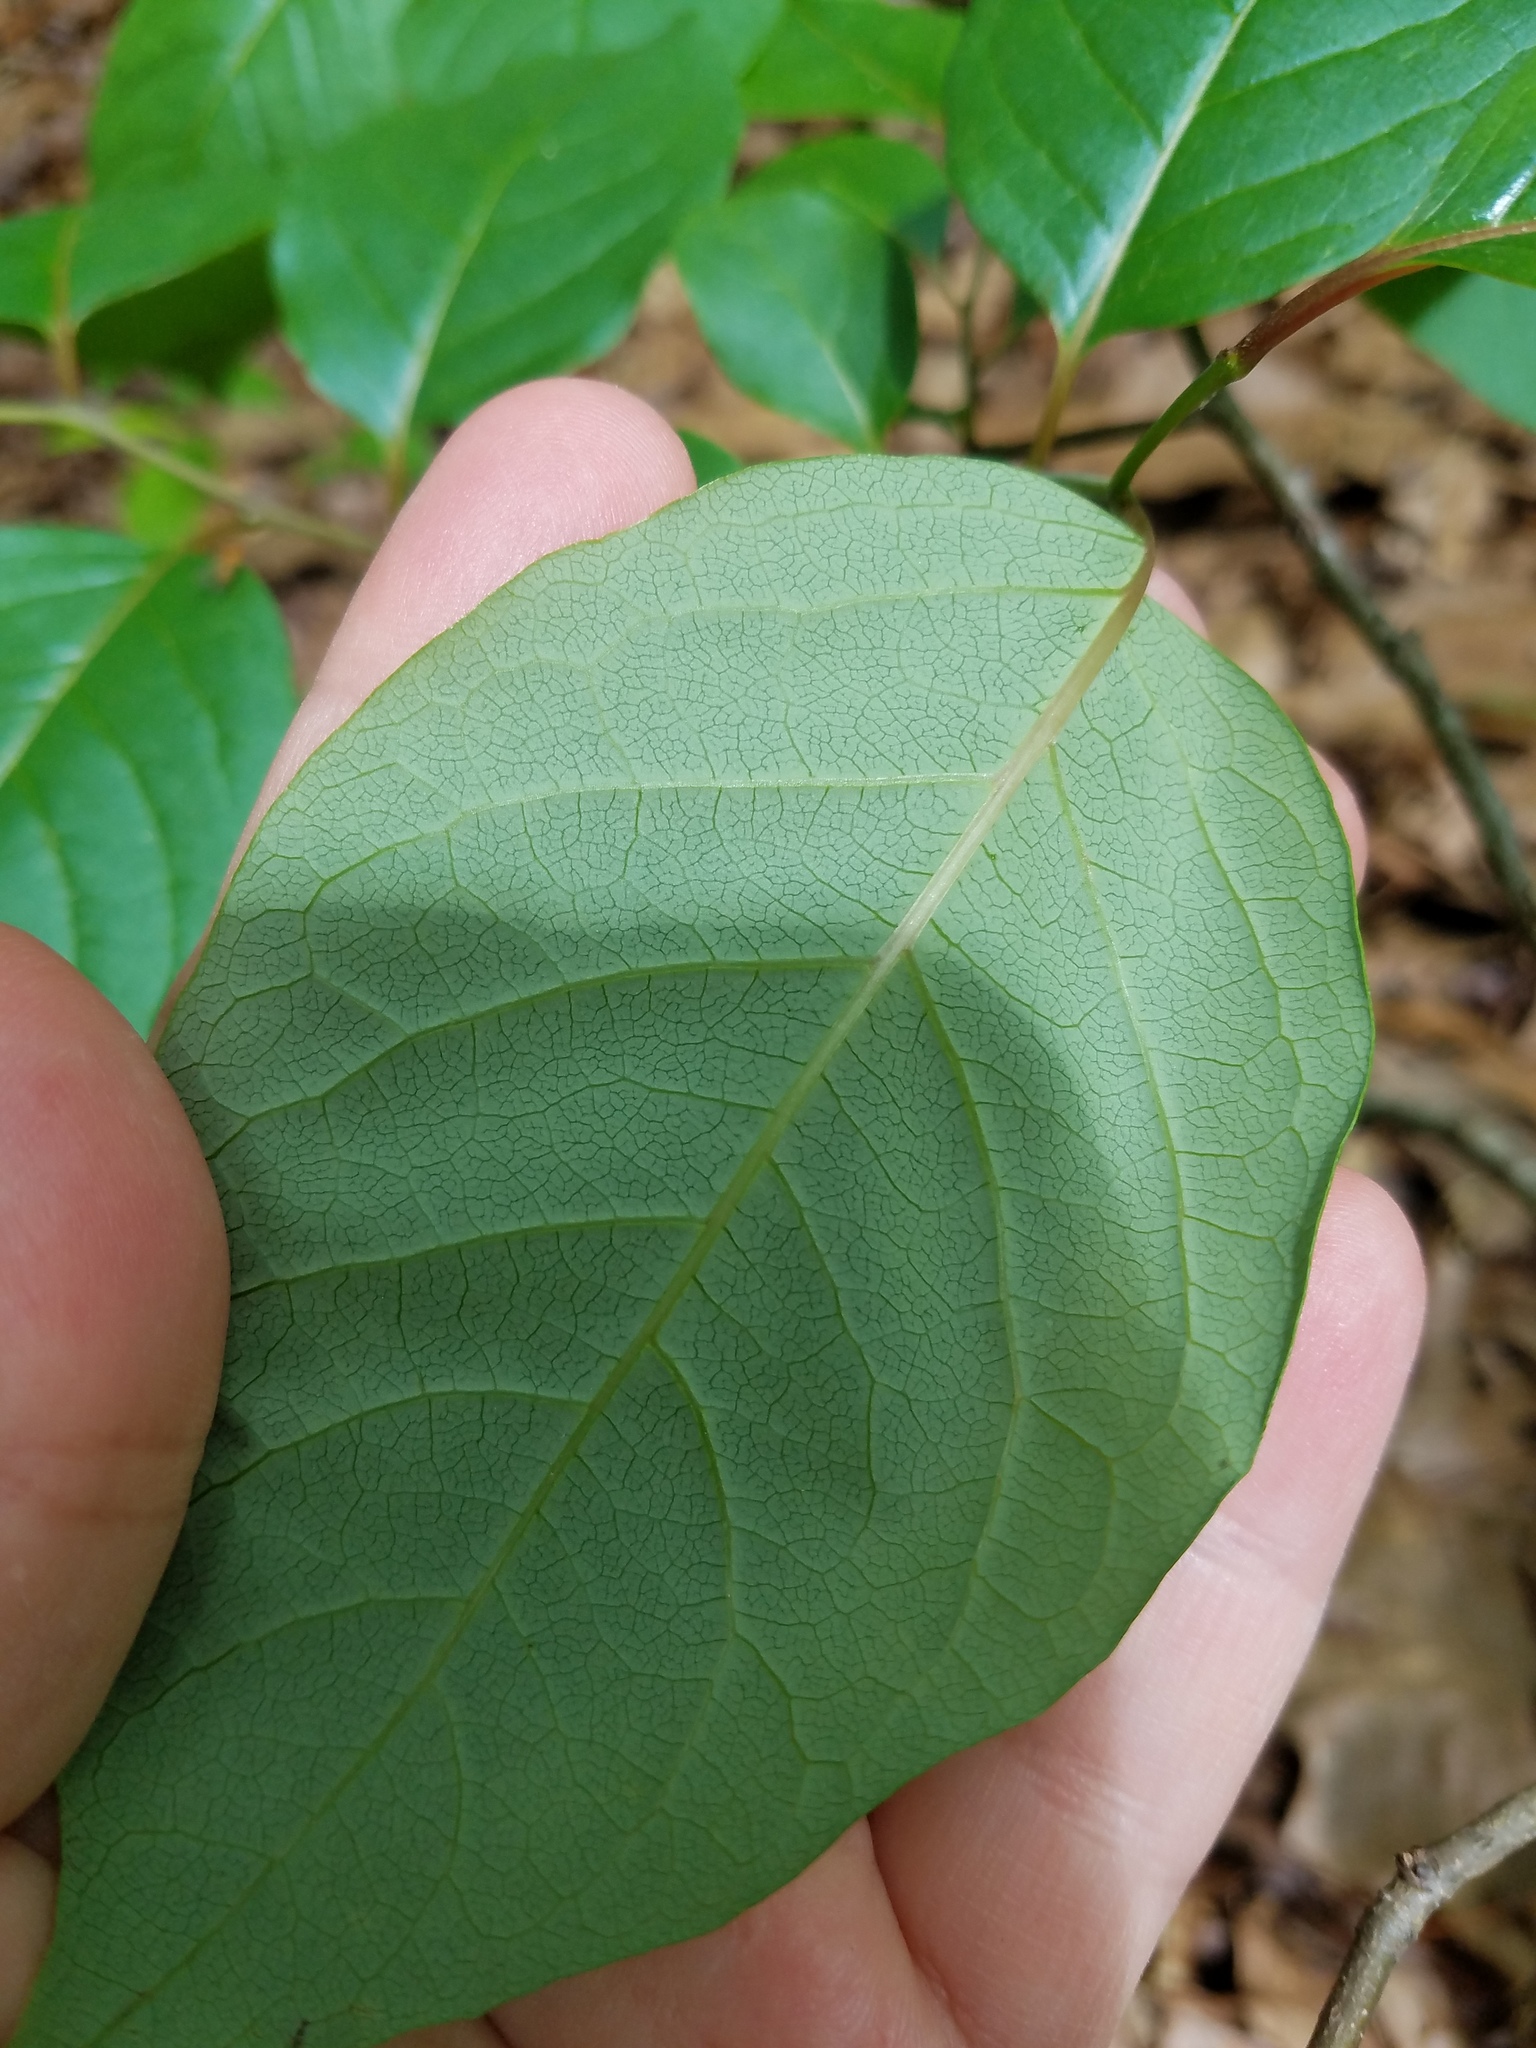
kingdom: Plantae
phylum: Tracheophyta
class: Magnoliopsida
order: Ericales
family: Ebenaceae
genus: Diospyros
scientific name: Diospyros virginiana
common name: Persimmon
